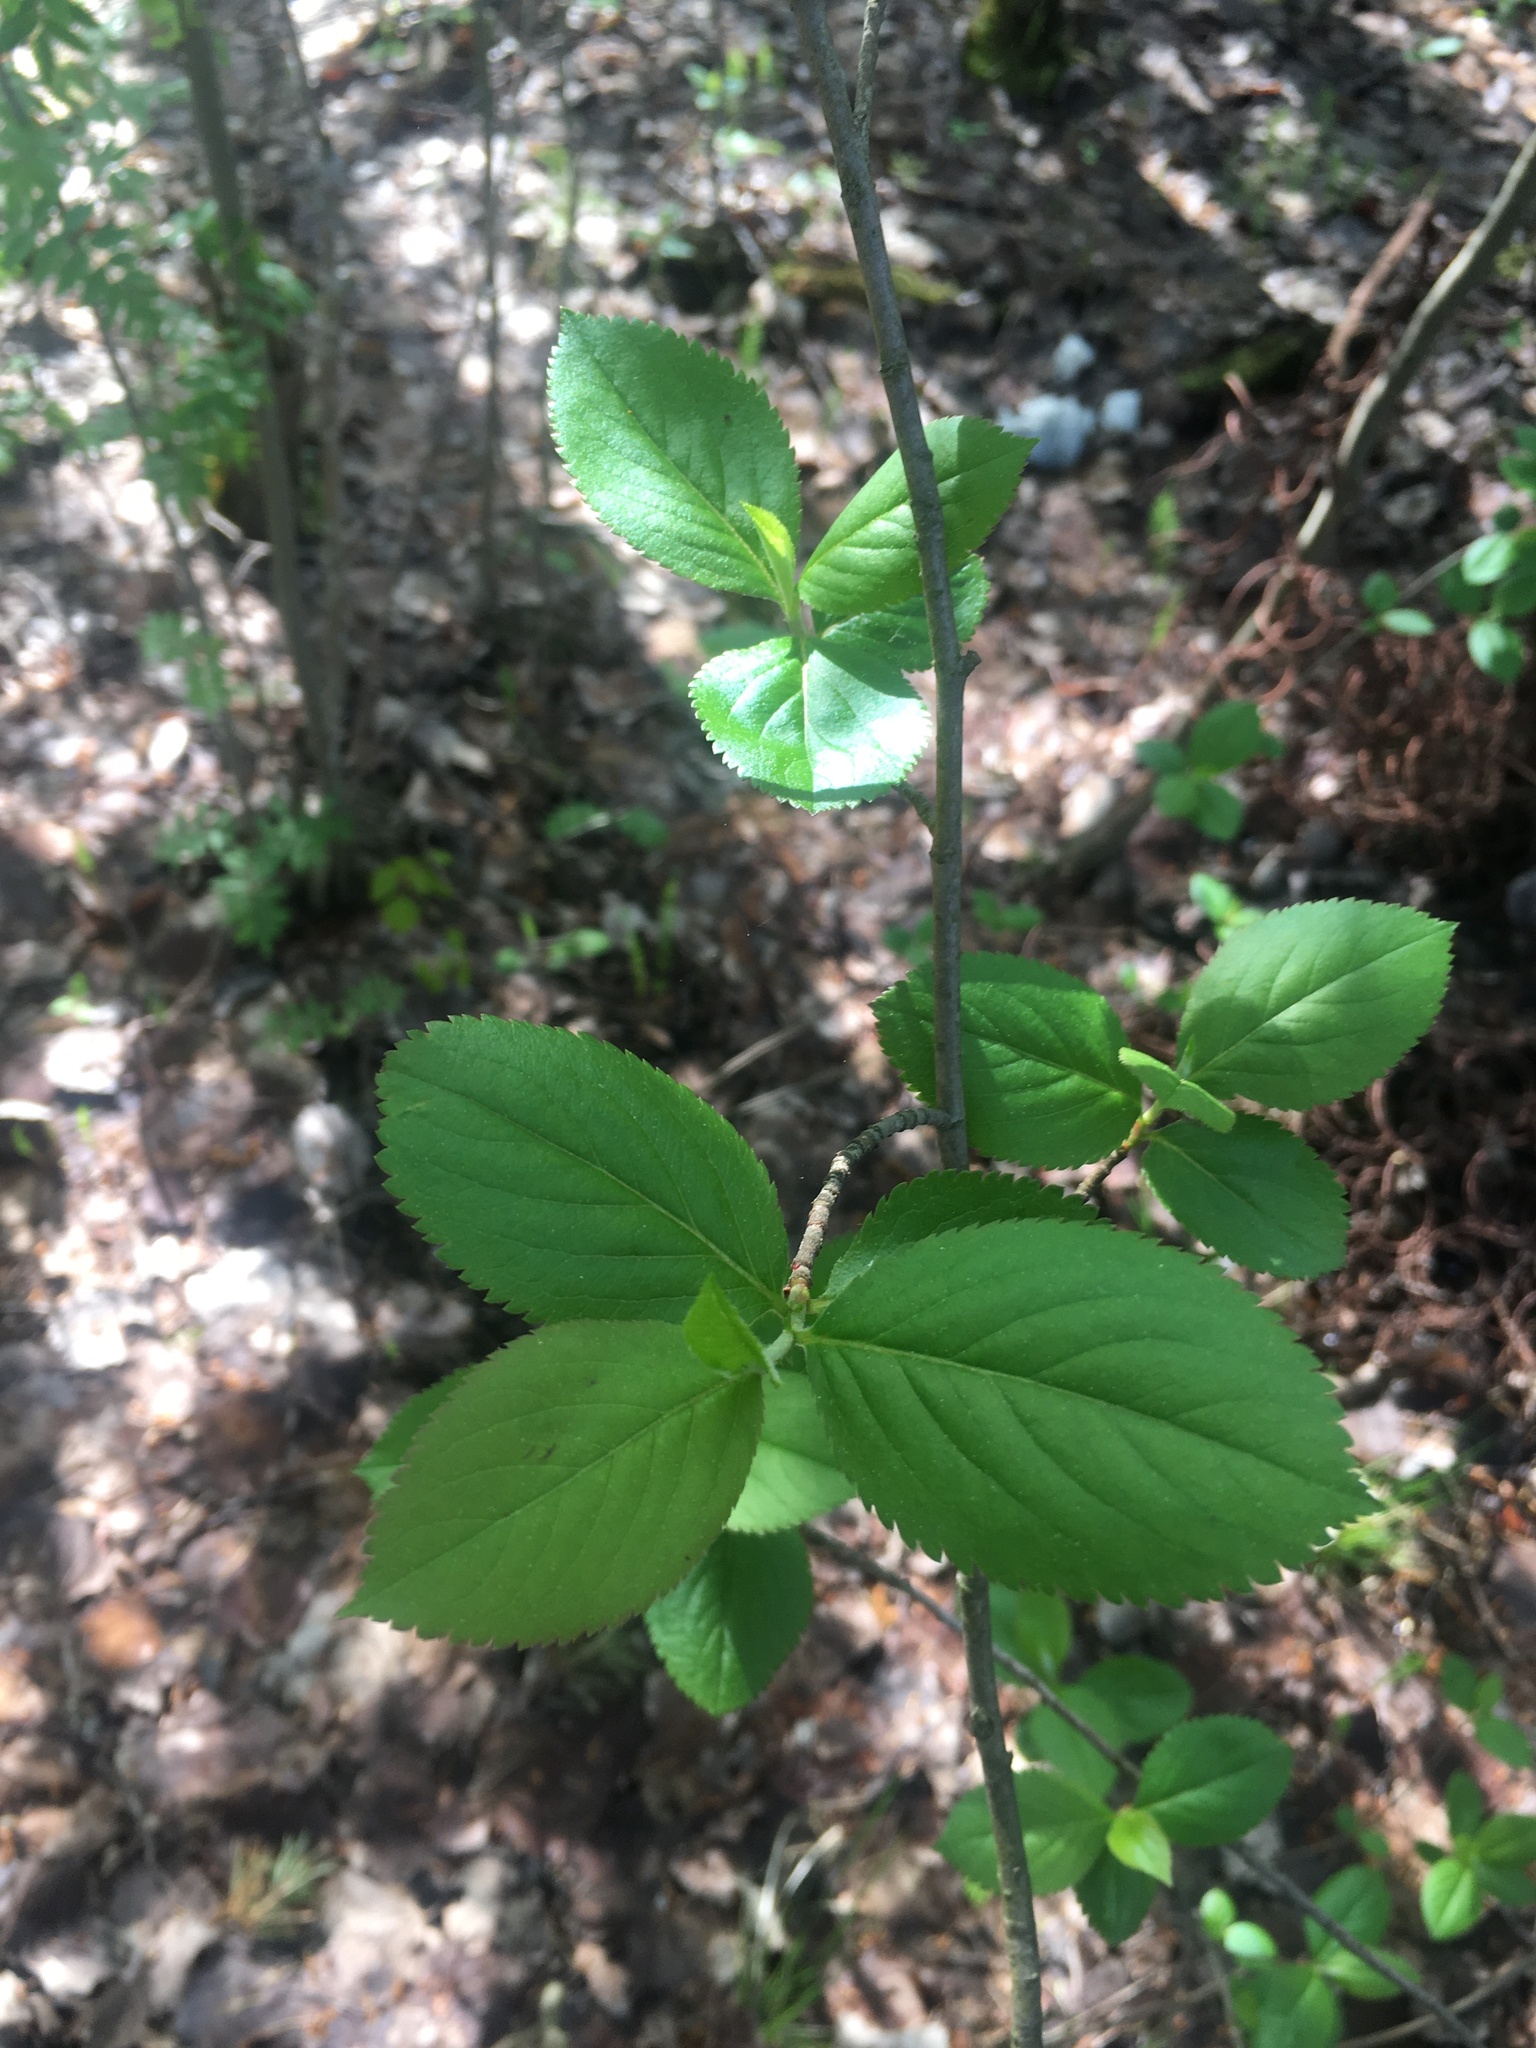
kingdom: Plantae
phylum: Tracheophyta
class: Magnoliopsida
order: Rosales
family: Rosaceae
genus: Sorbaronia
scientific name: Sorbaronia arsenii
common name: Arsène's mountain-ash
